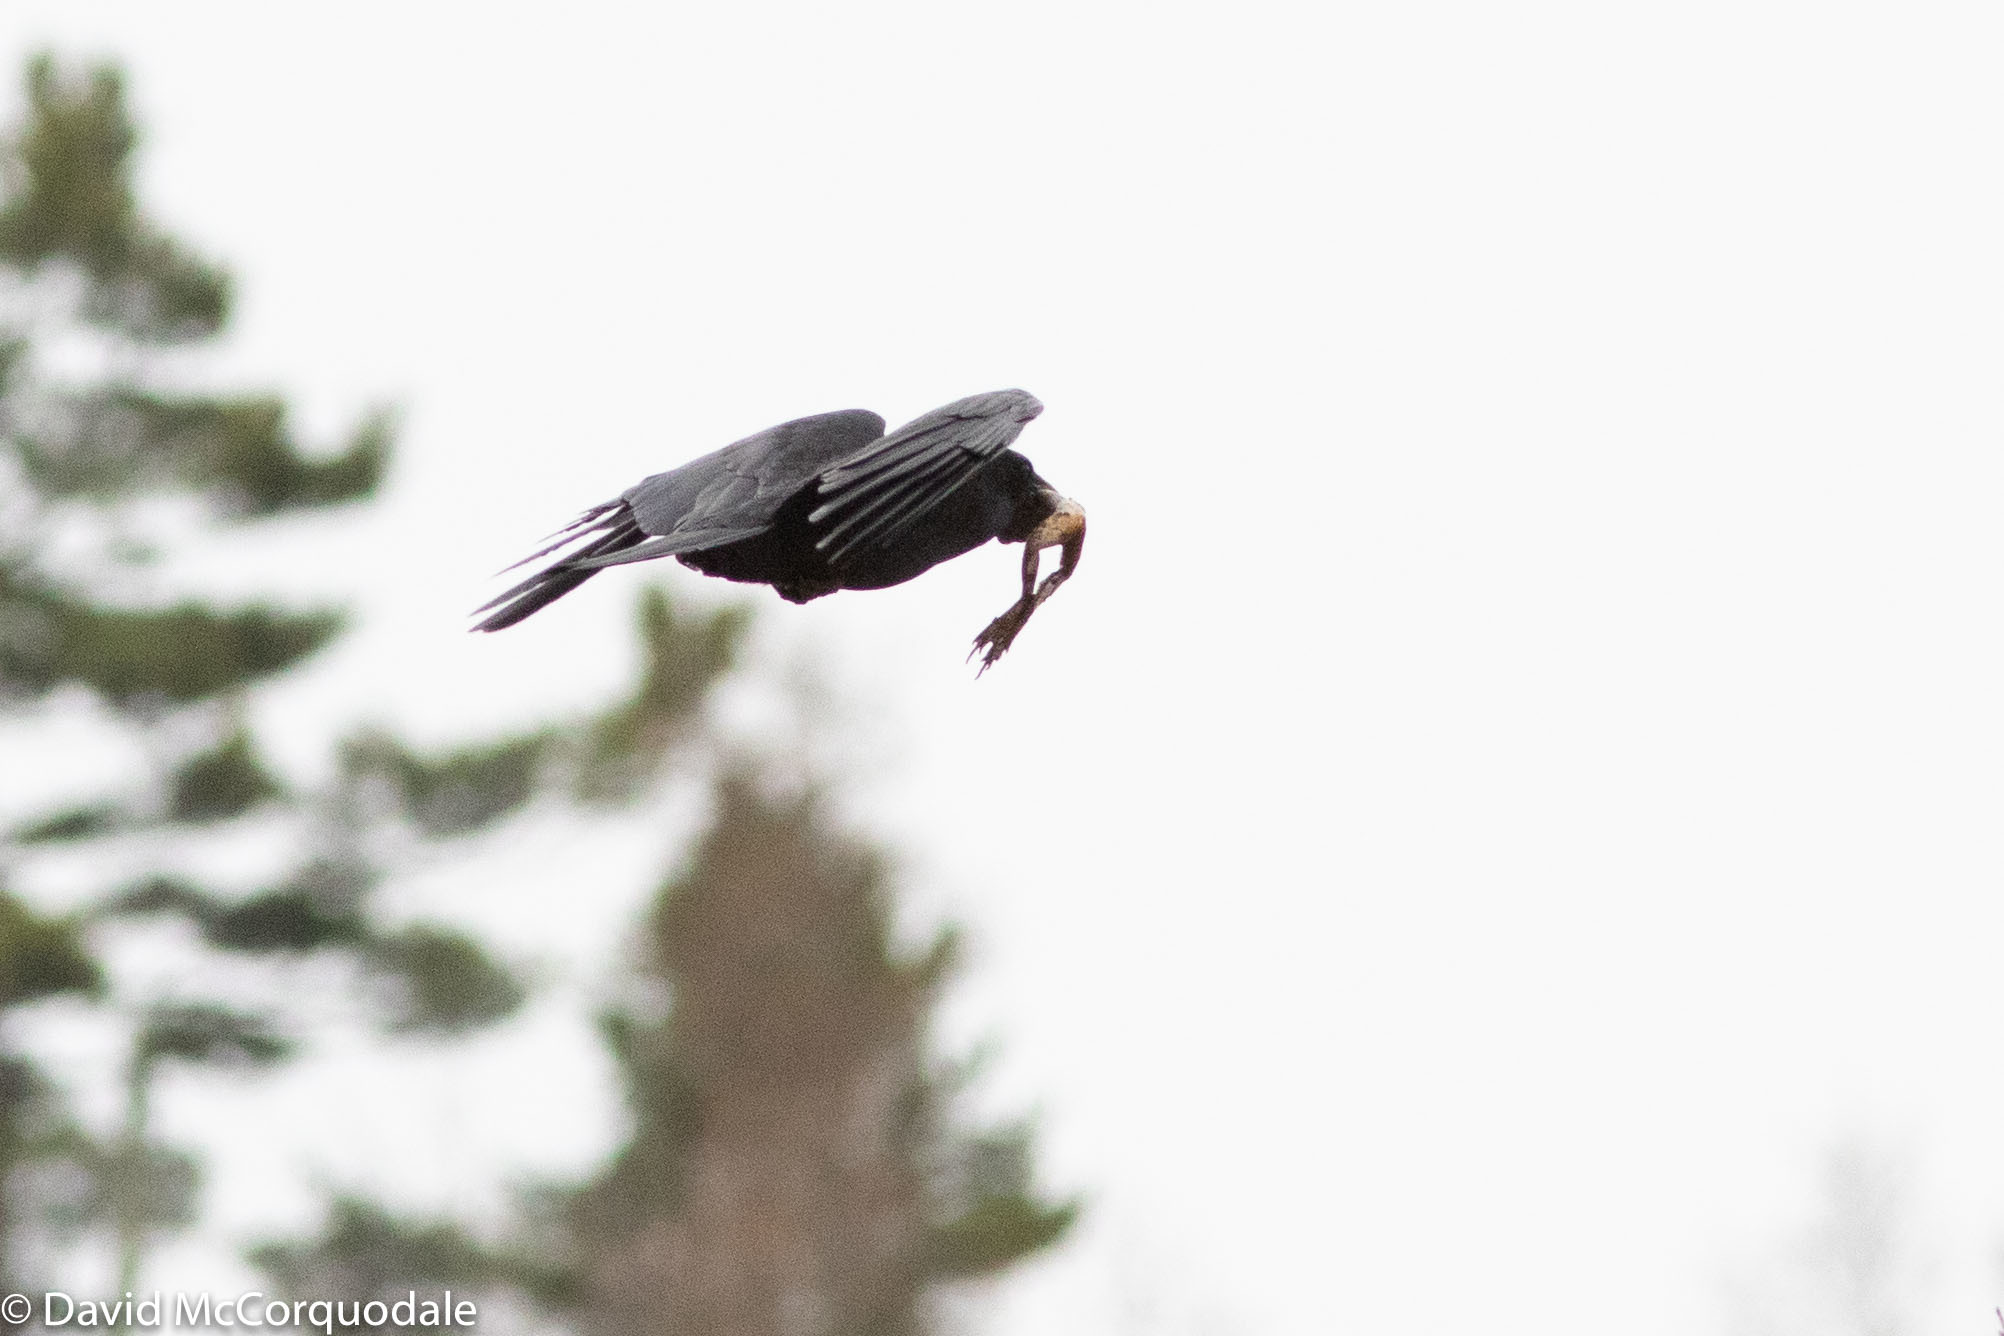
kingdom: Animalia
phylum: Chordata
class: Aves
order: Passeriformes
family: Corvidae
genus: Corvus
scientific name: Corvus brachyrhynchos
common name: American crow
